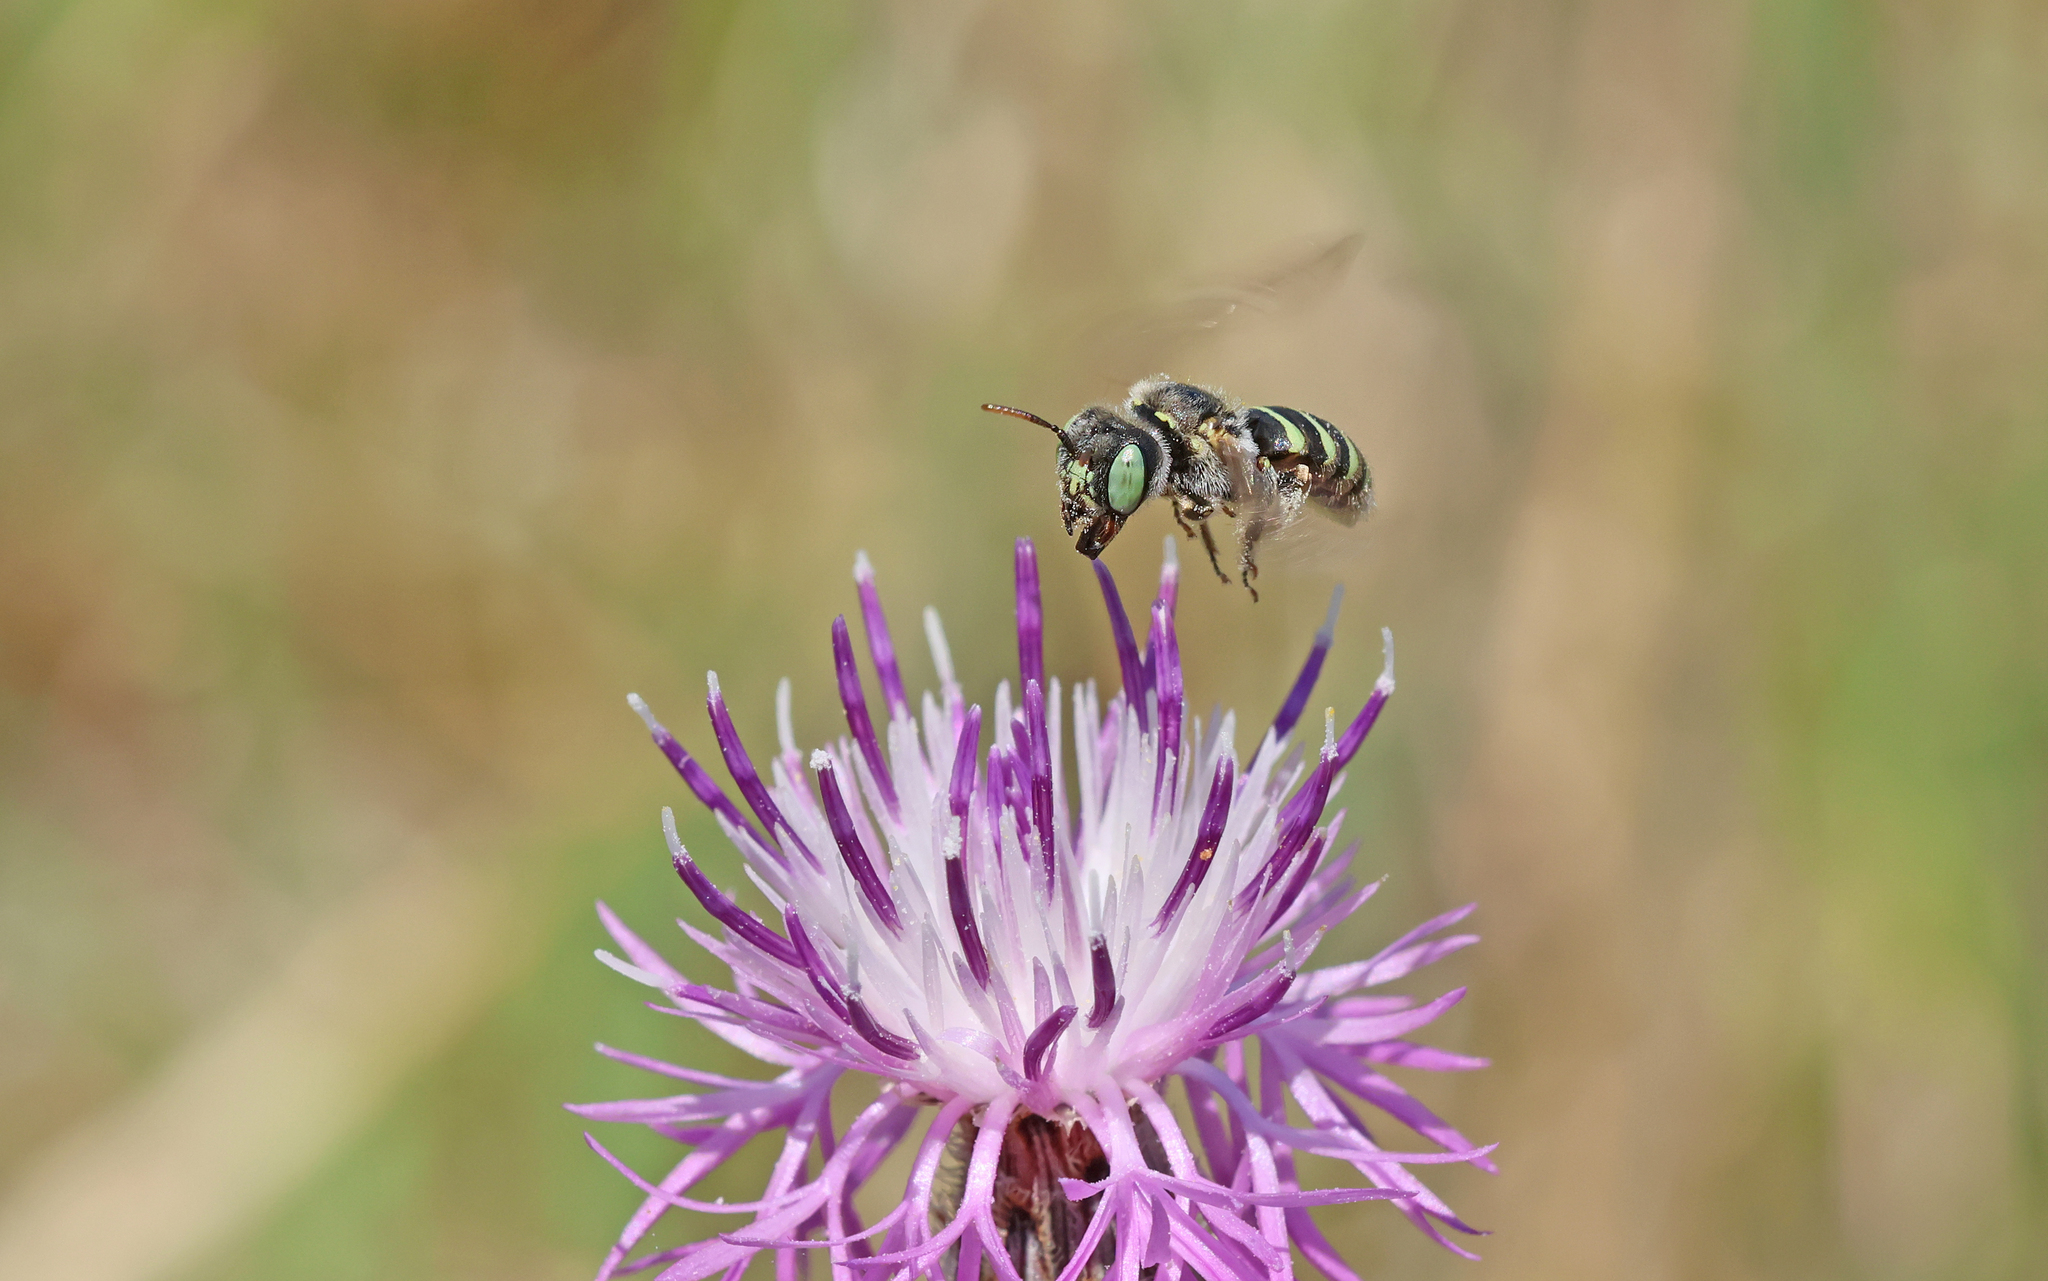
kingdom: Animalia
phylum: Arthropoda
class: Insecta
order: Hymenoptera
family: Andrenidae
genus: Camptopoeum
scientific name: Camptopoeum friesei
